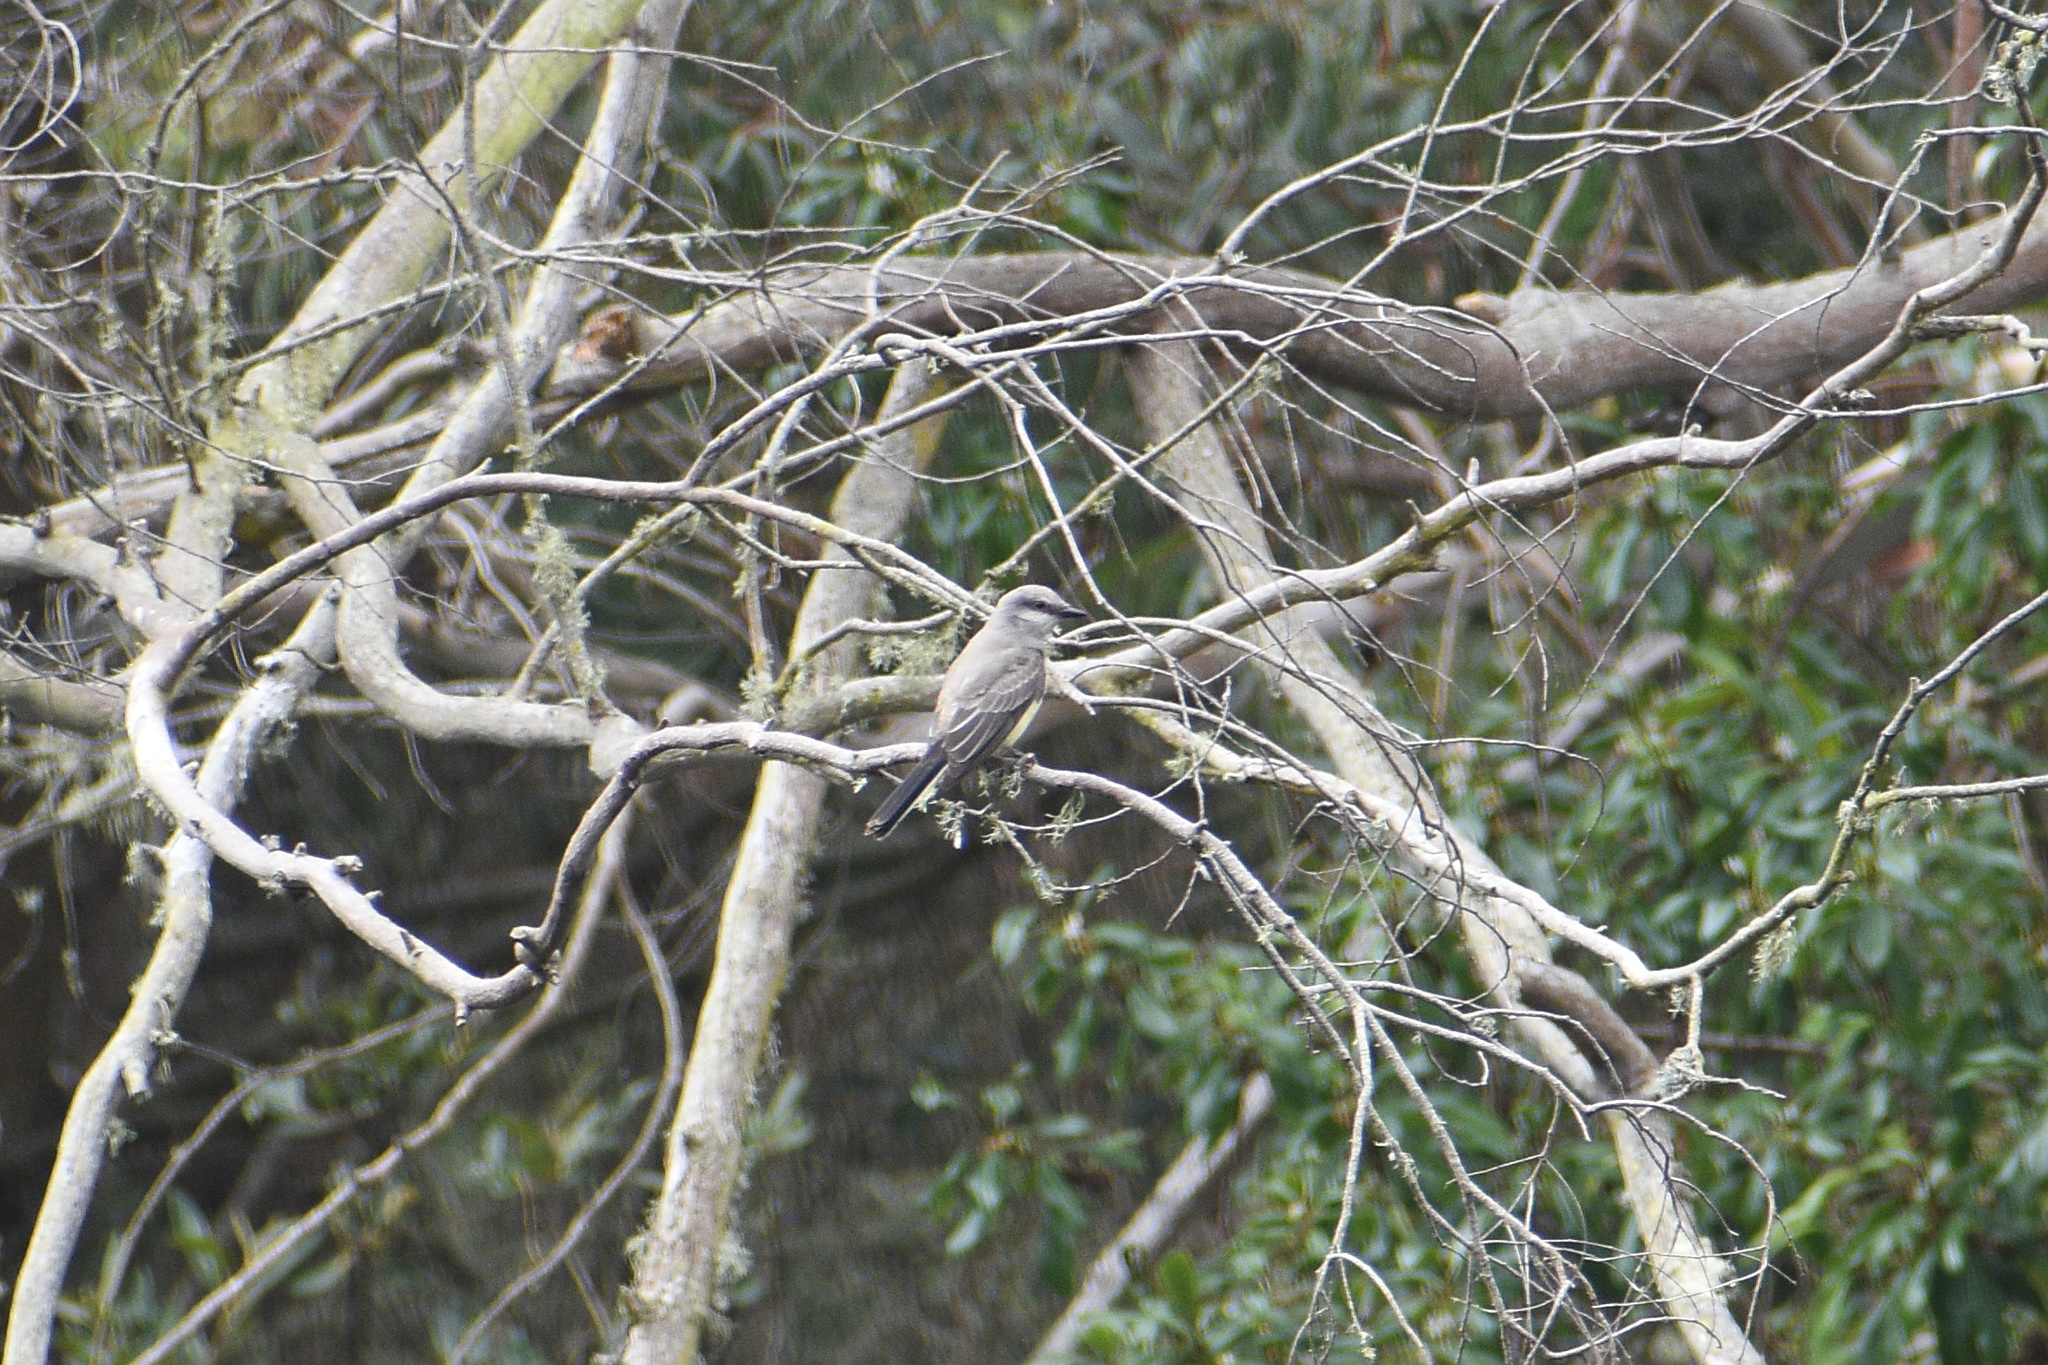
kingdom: Animalia
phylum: Chordata
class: Aves
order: Passeriformes
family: Tyrannidae
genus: Tyrannus
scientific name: Tyrannus verticalis
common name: Western kingbird
